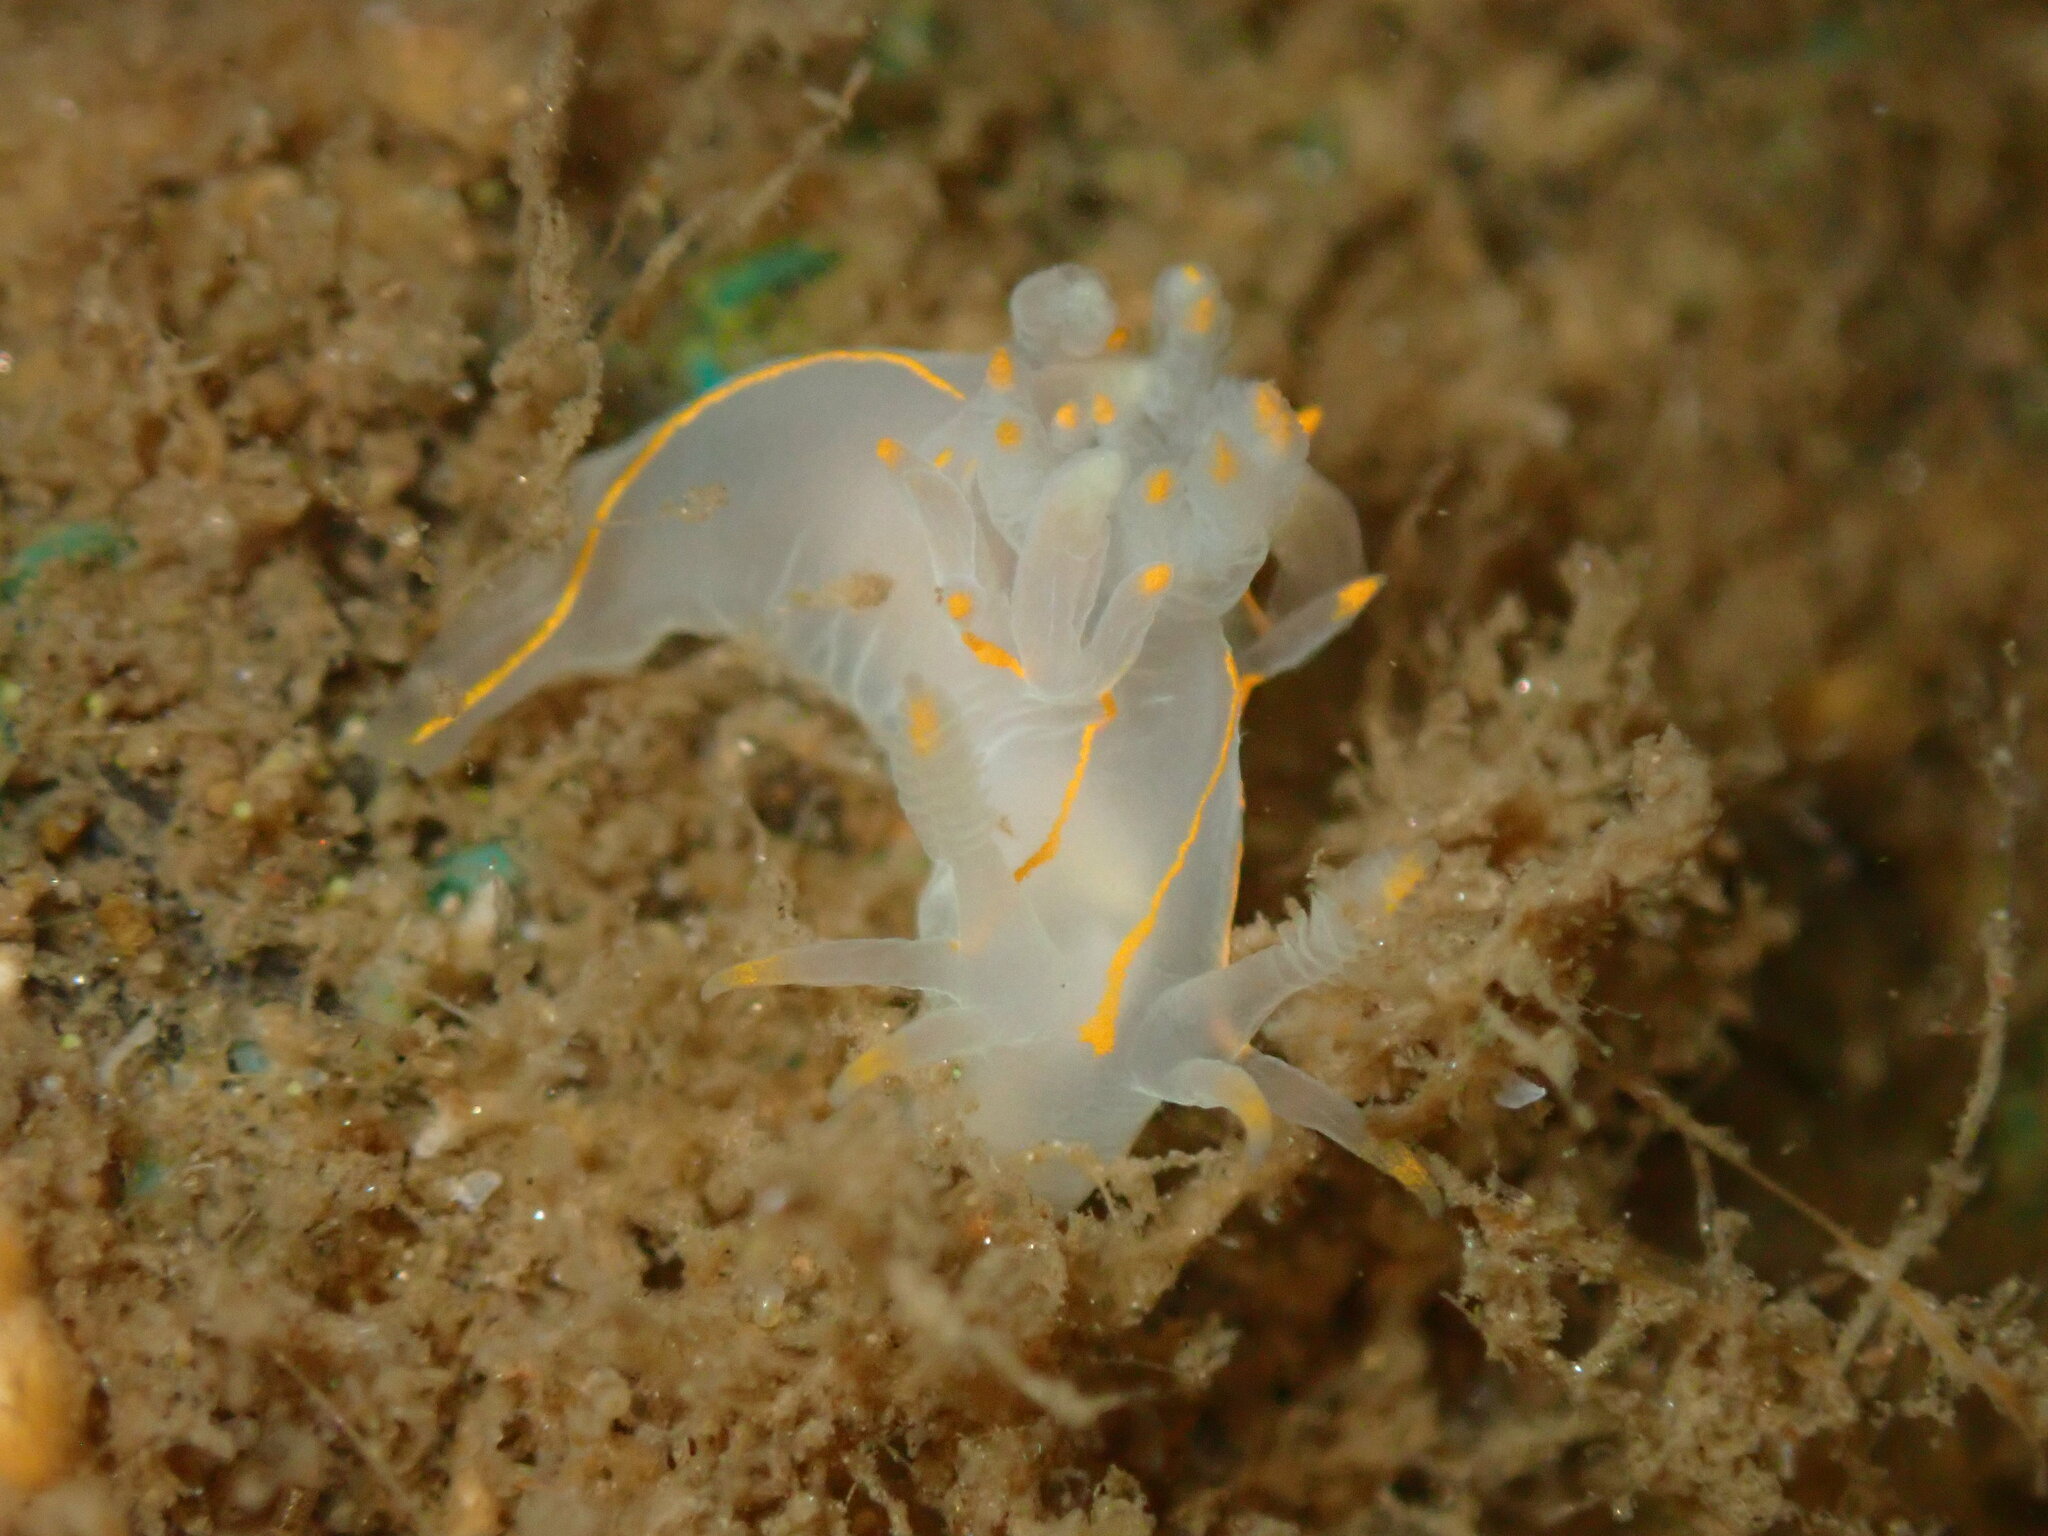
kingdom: Animalia
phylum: Mollusca
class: Gastropoda
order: Nudibranchia
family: Goniodorididae
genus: Ancula
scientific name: Ancula pacifica
